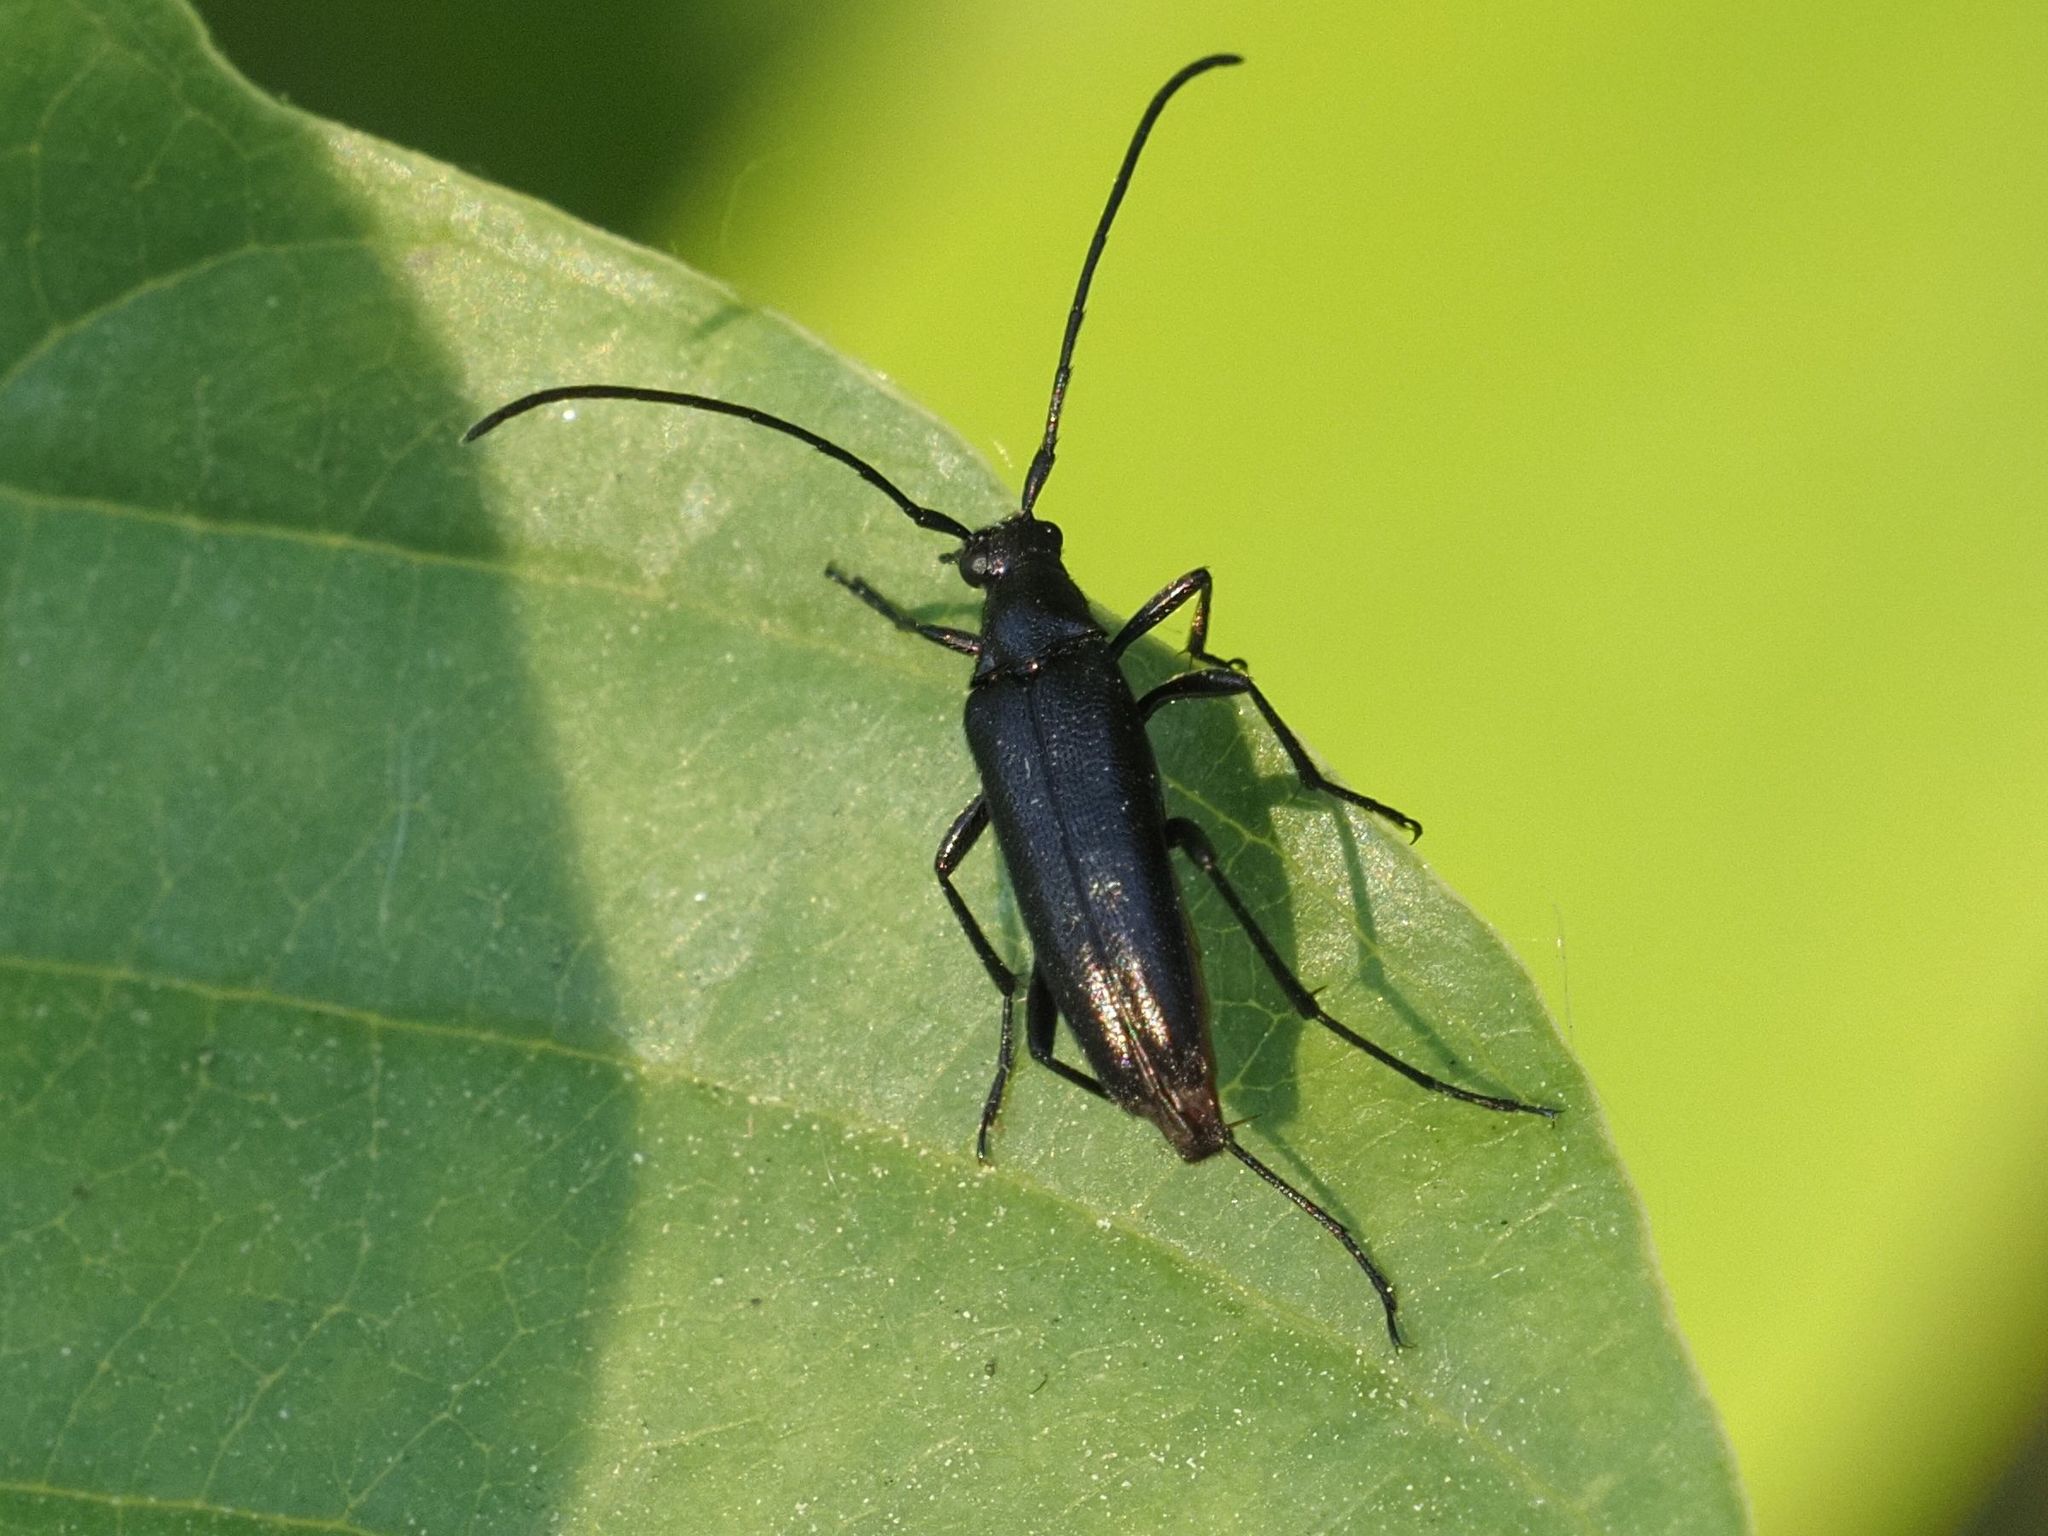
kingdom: Animalia
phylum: Arthropoda
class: Insecta
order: Coleoptera
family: Cerambycidae
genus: Stenurella
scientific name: Stenurella nigra
